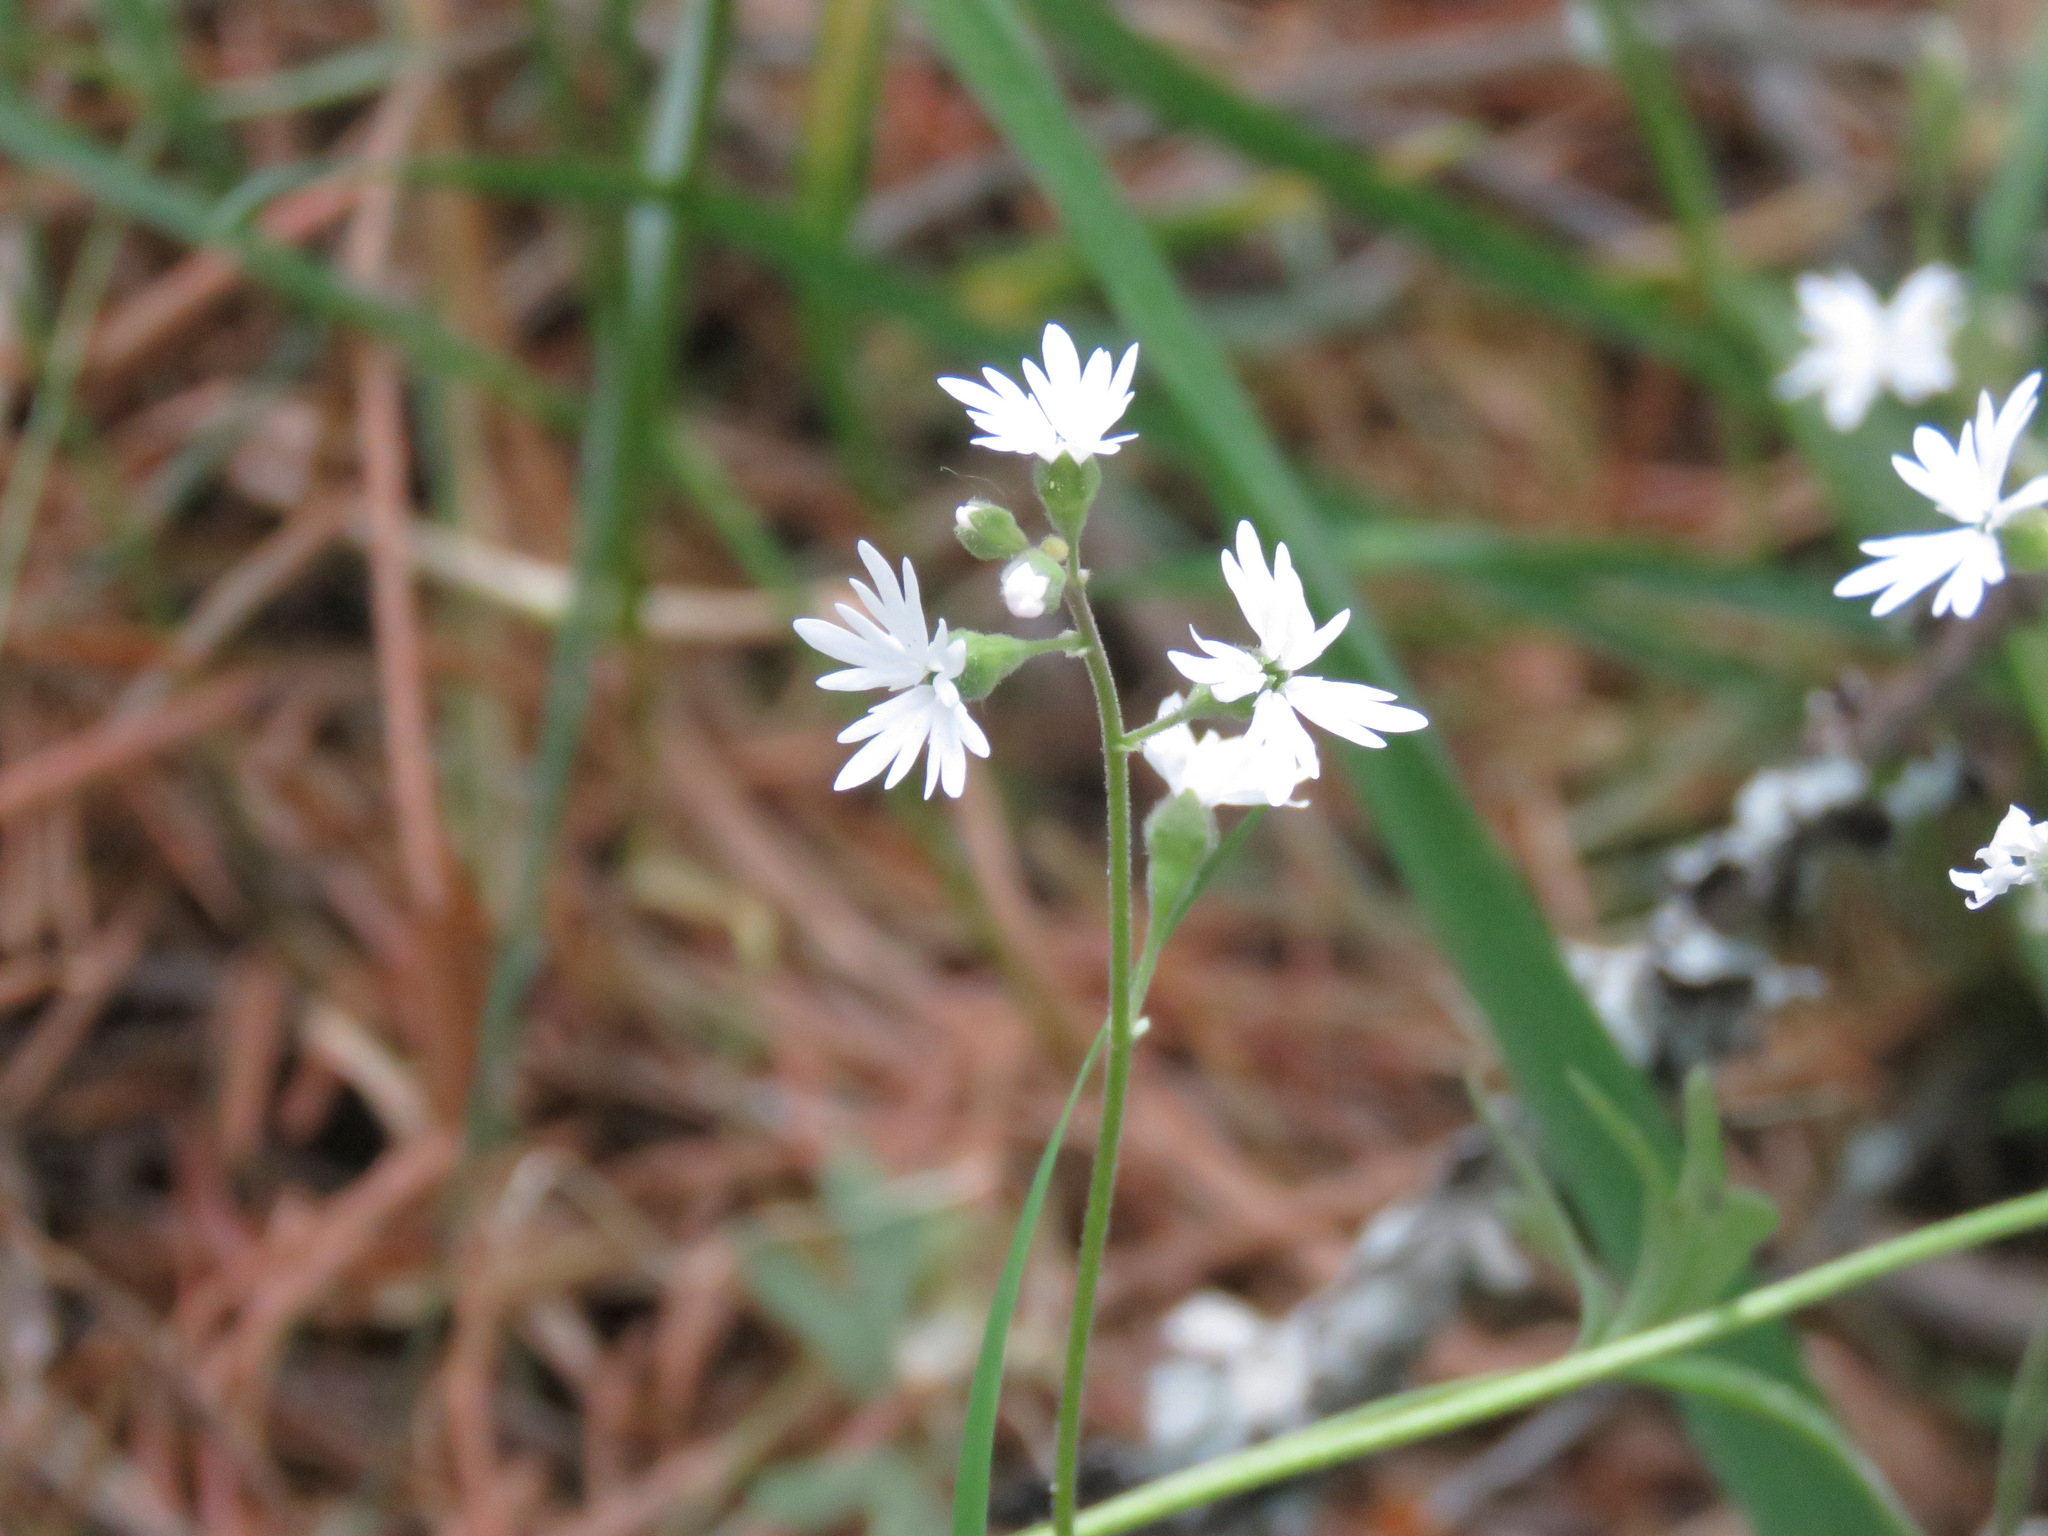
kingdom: Plantae
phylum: Tracheophyta
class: Magnoliopsida
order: Saxifragales
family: Saxifragaceae
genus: Lithophragma
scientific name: Lithophragma parviflorum
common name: Small-flowered fringe-cup
